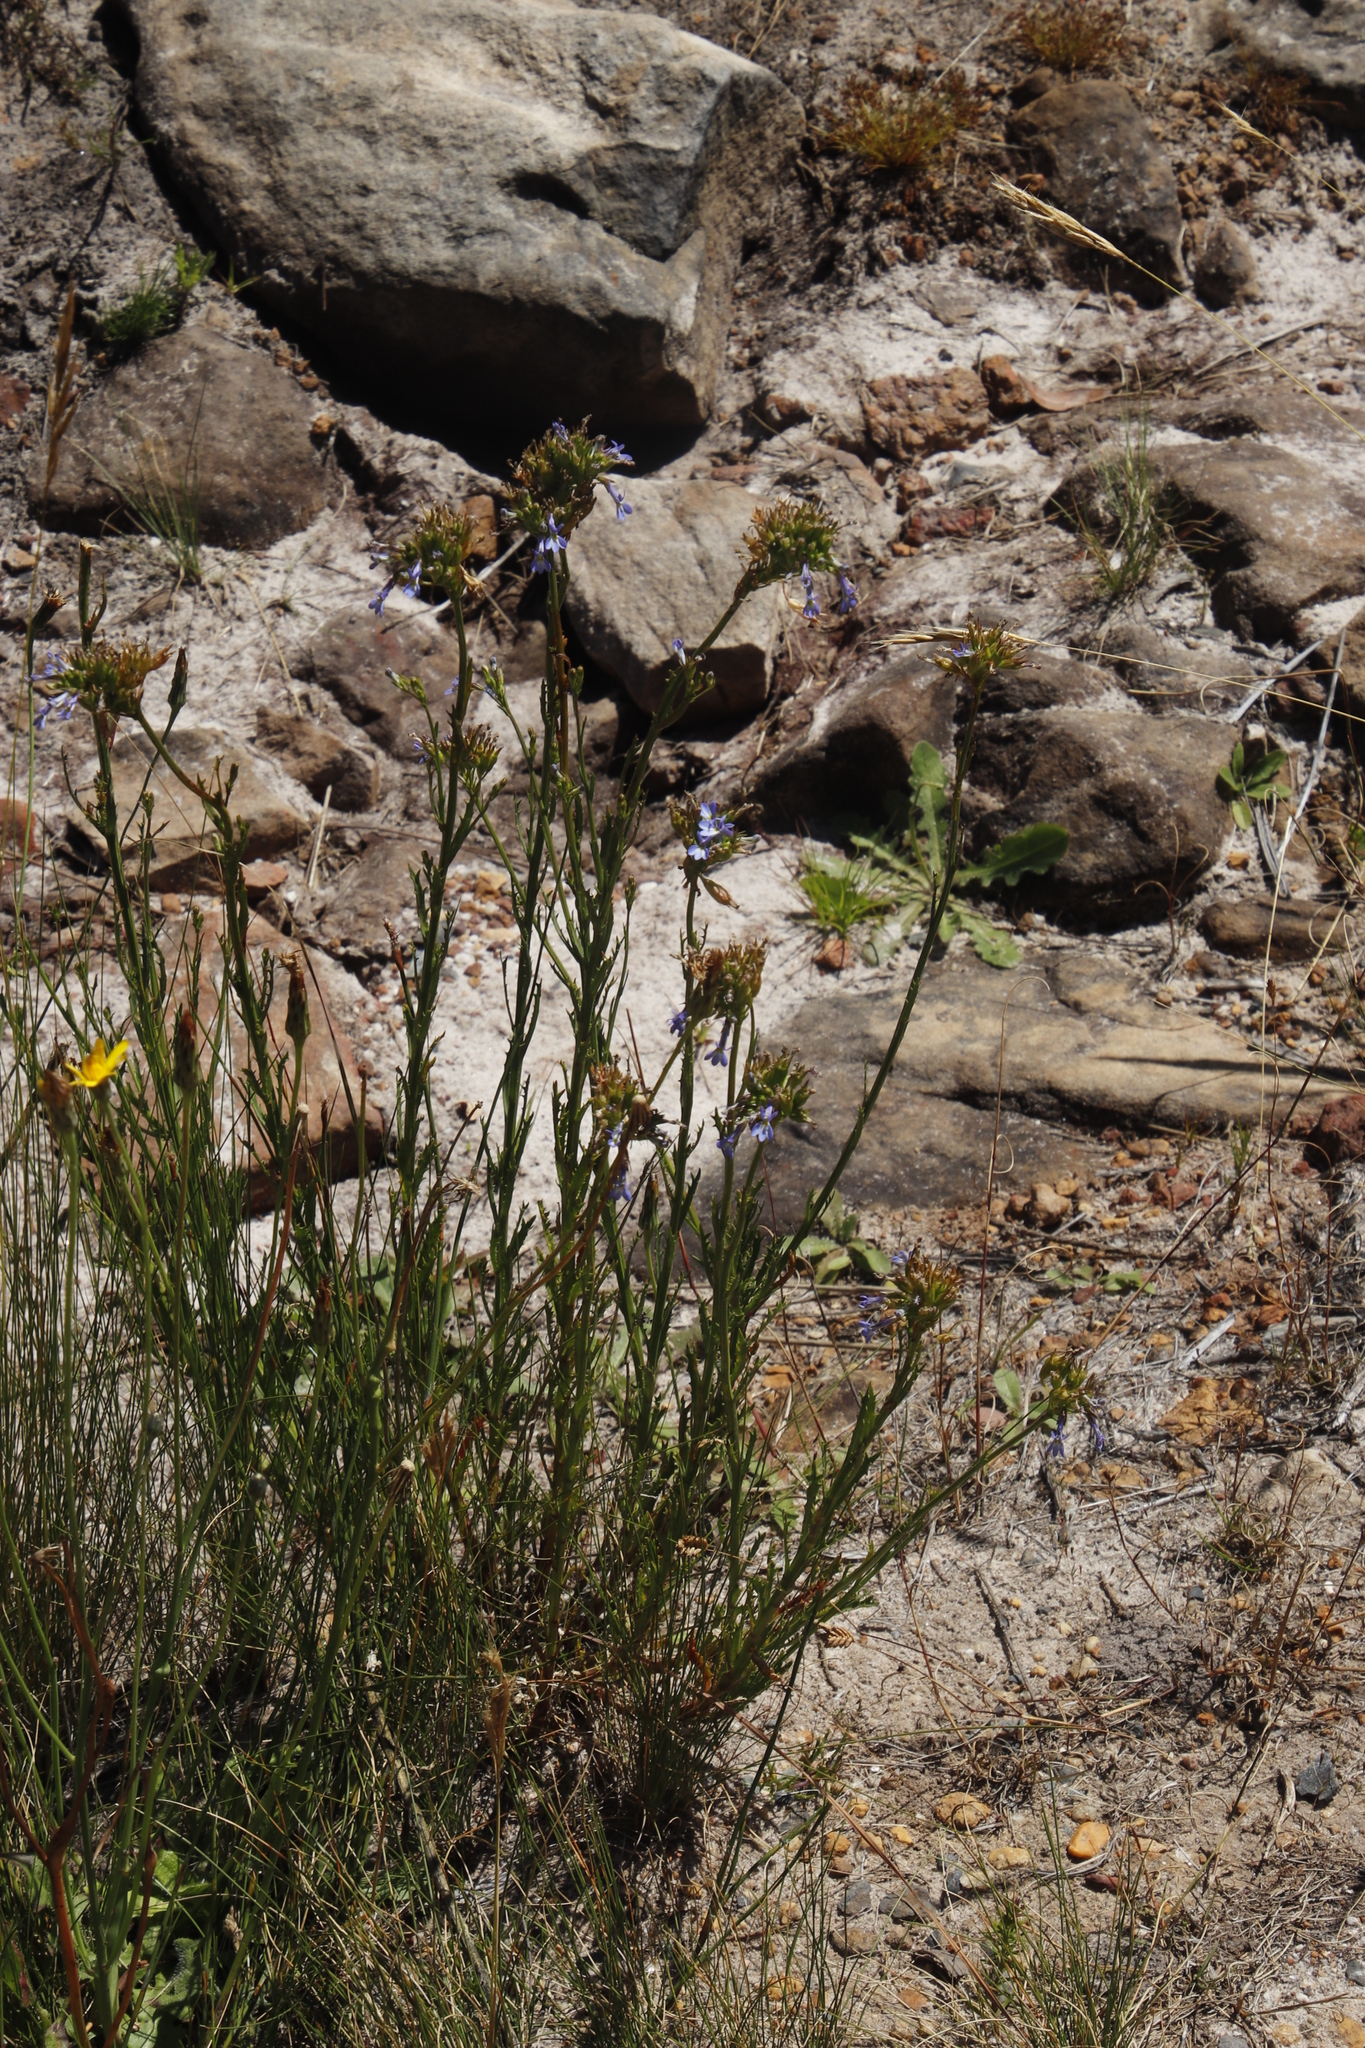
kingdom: Plantae
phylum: Tracheophyta
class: Magnoliopsida
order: Asterales
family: Campanulaceae
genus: Lobelia
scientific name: Lobelia comosa
